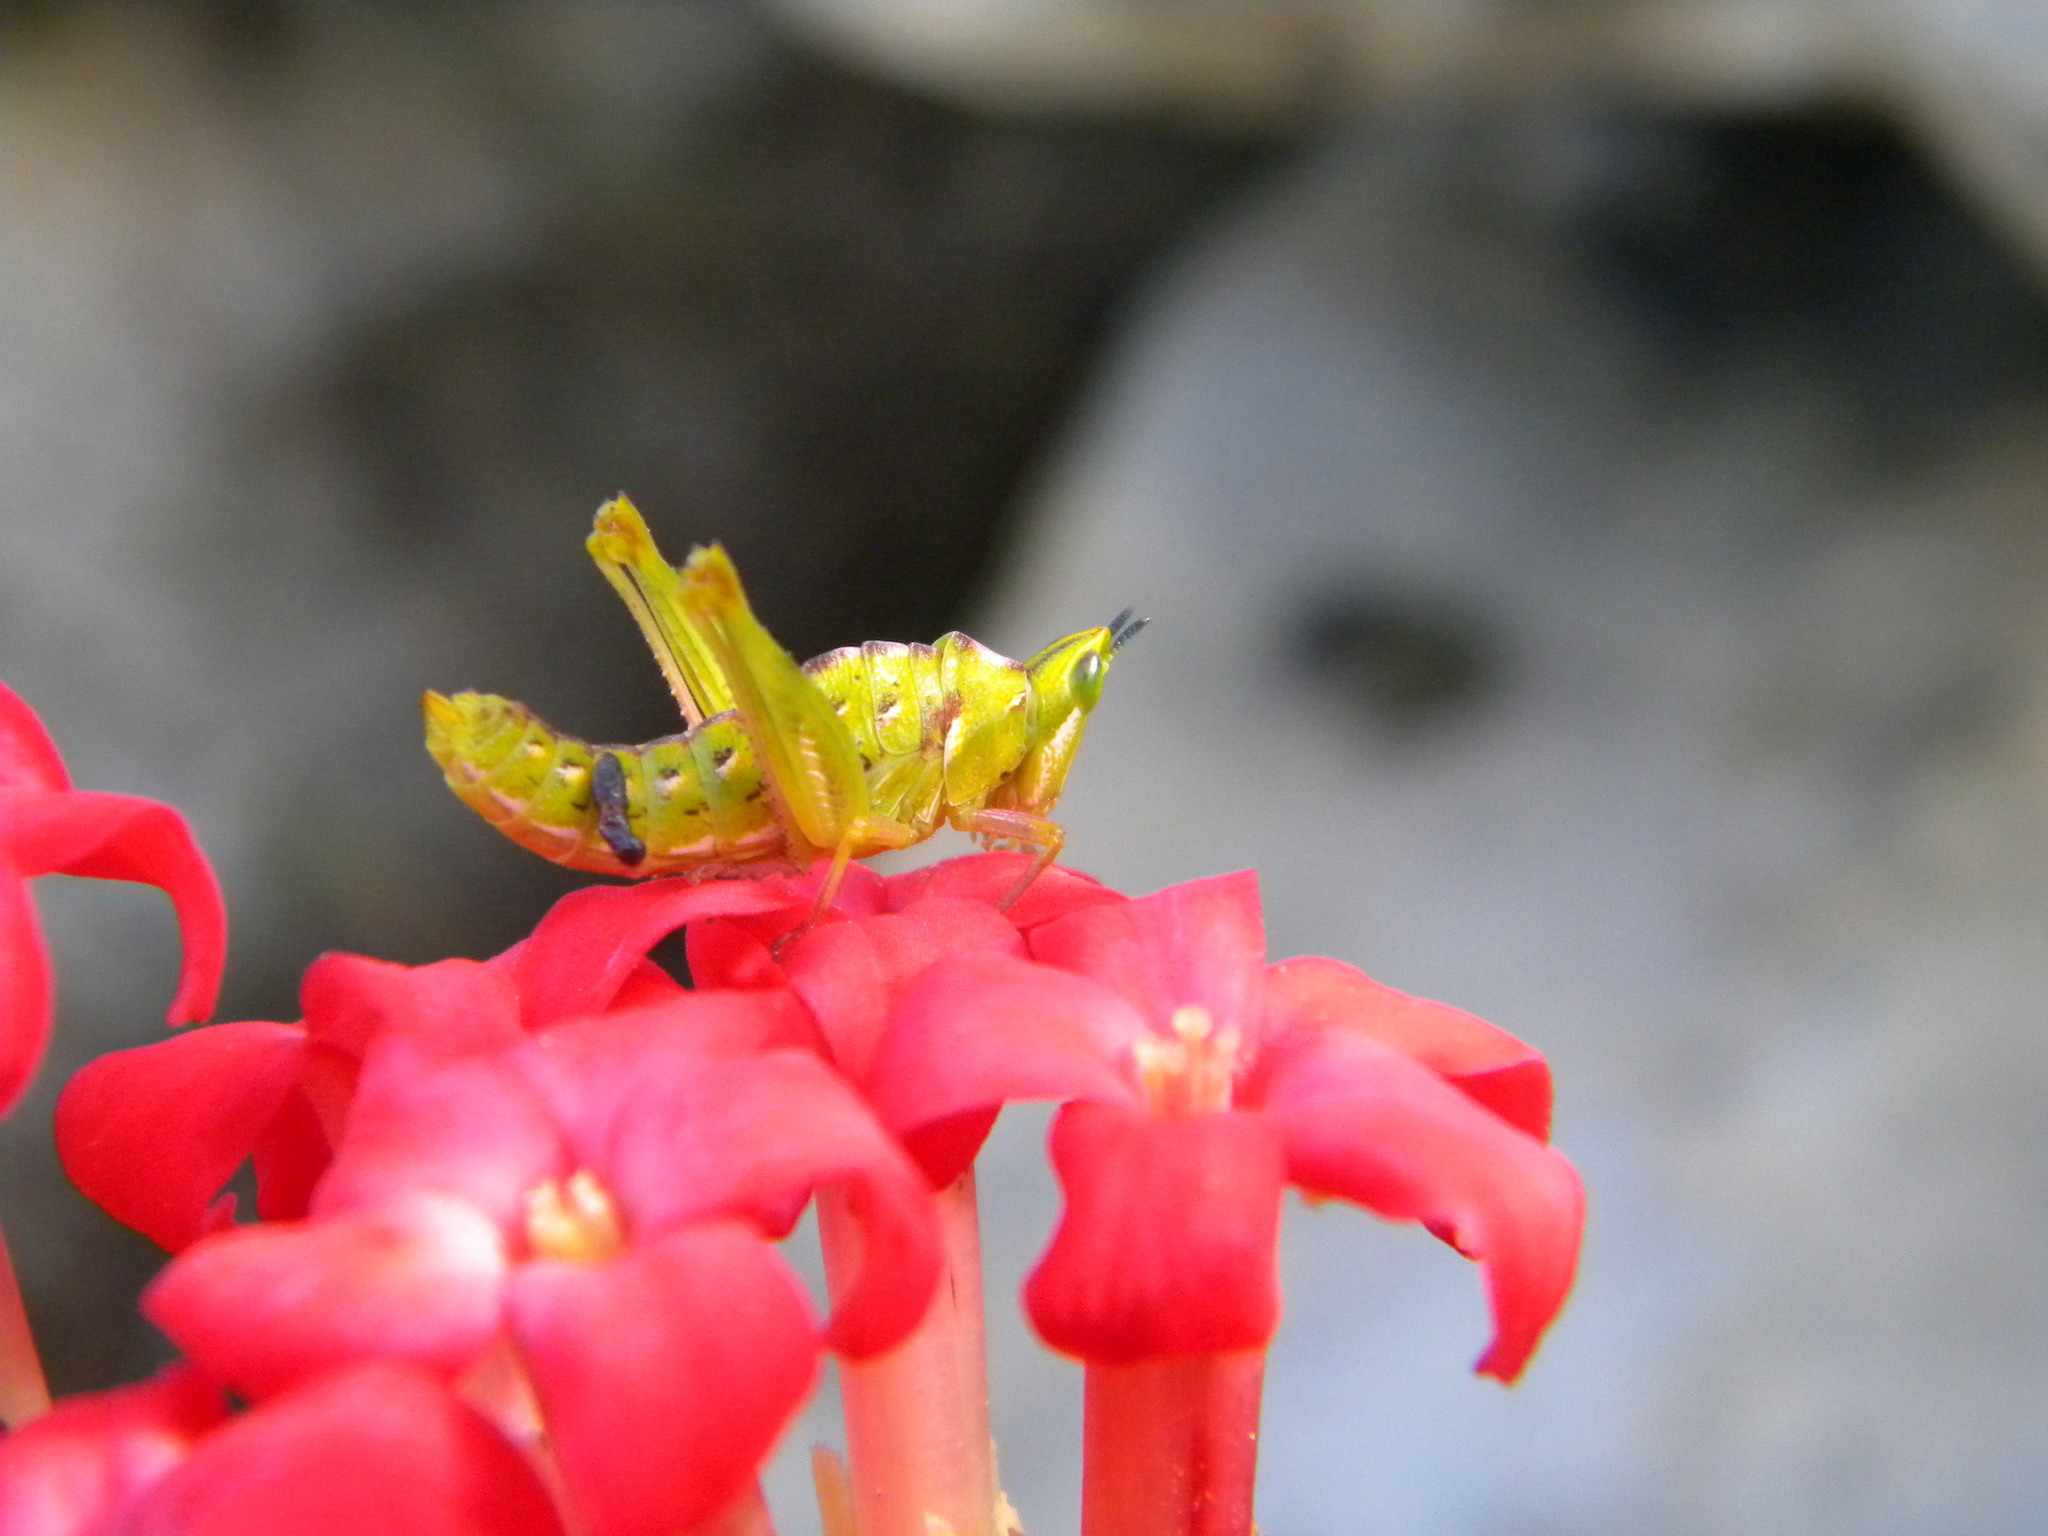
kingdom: Animalia
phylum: Arthropoda
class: Insecta
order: Orthoptera
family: Thericleidae
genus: Thericlesiella
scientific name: Thericlesiella meridionalis
